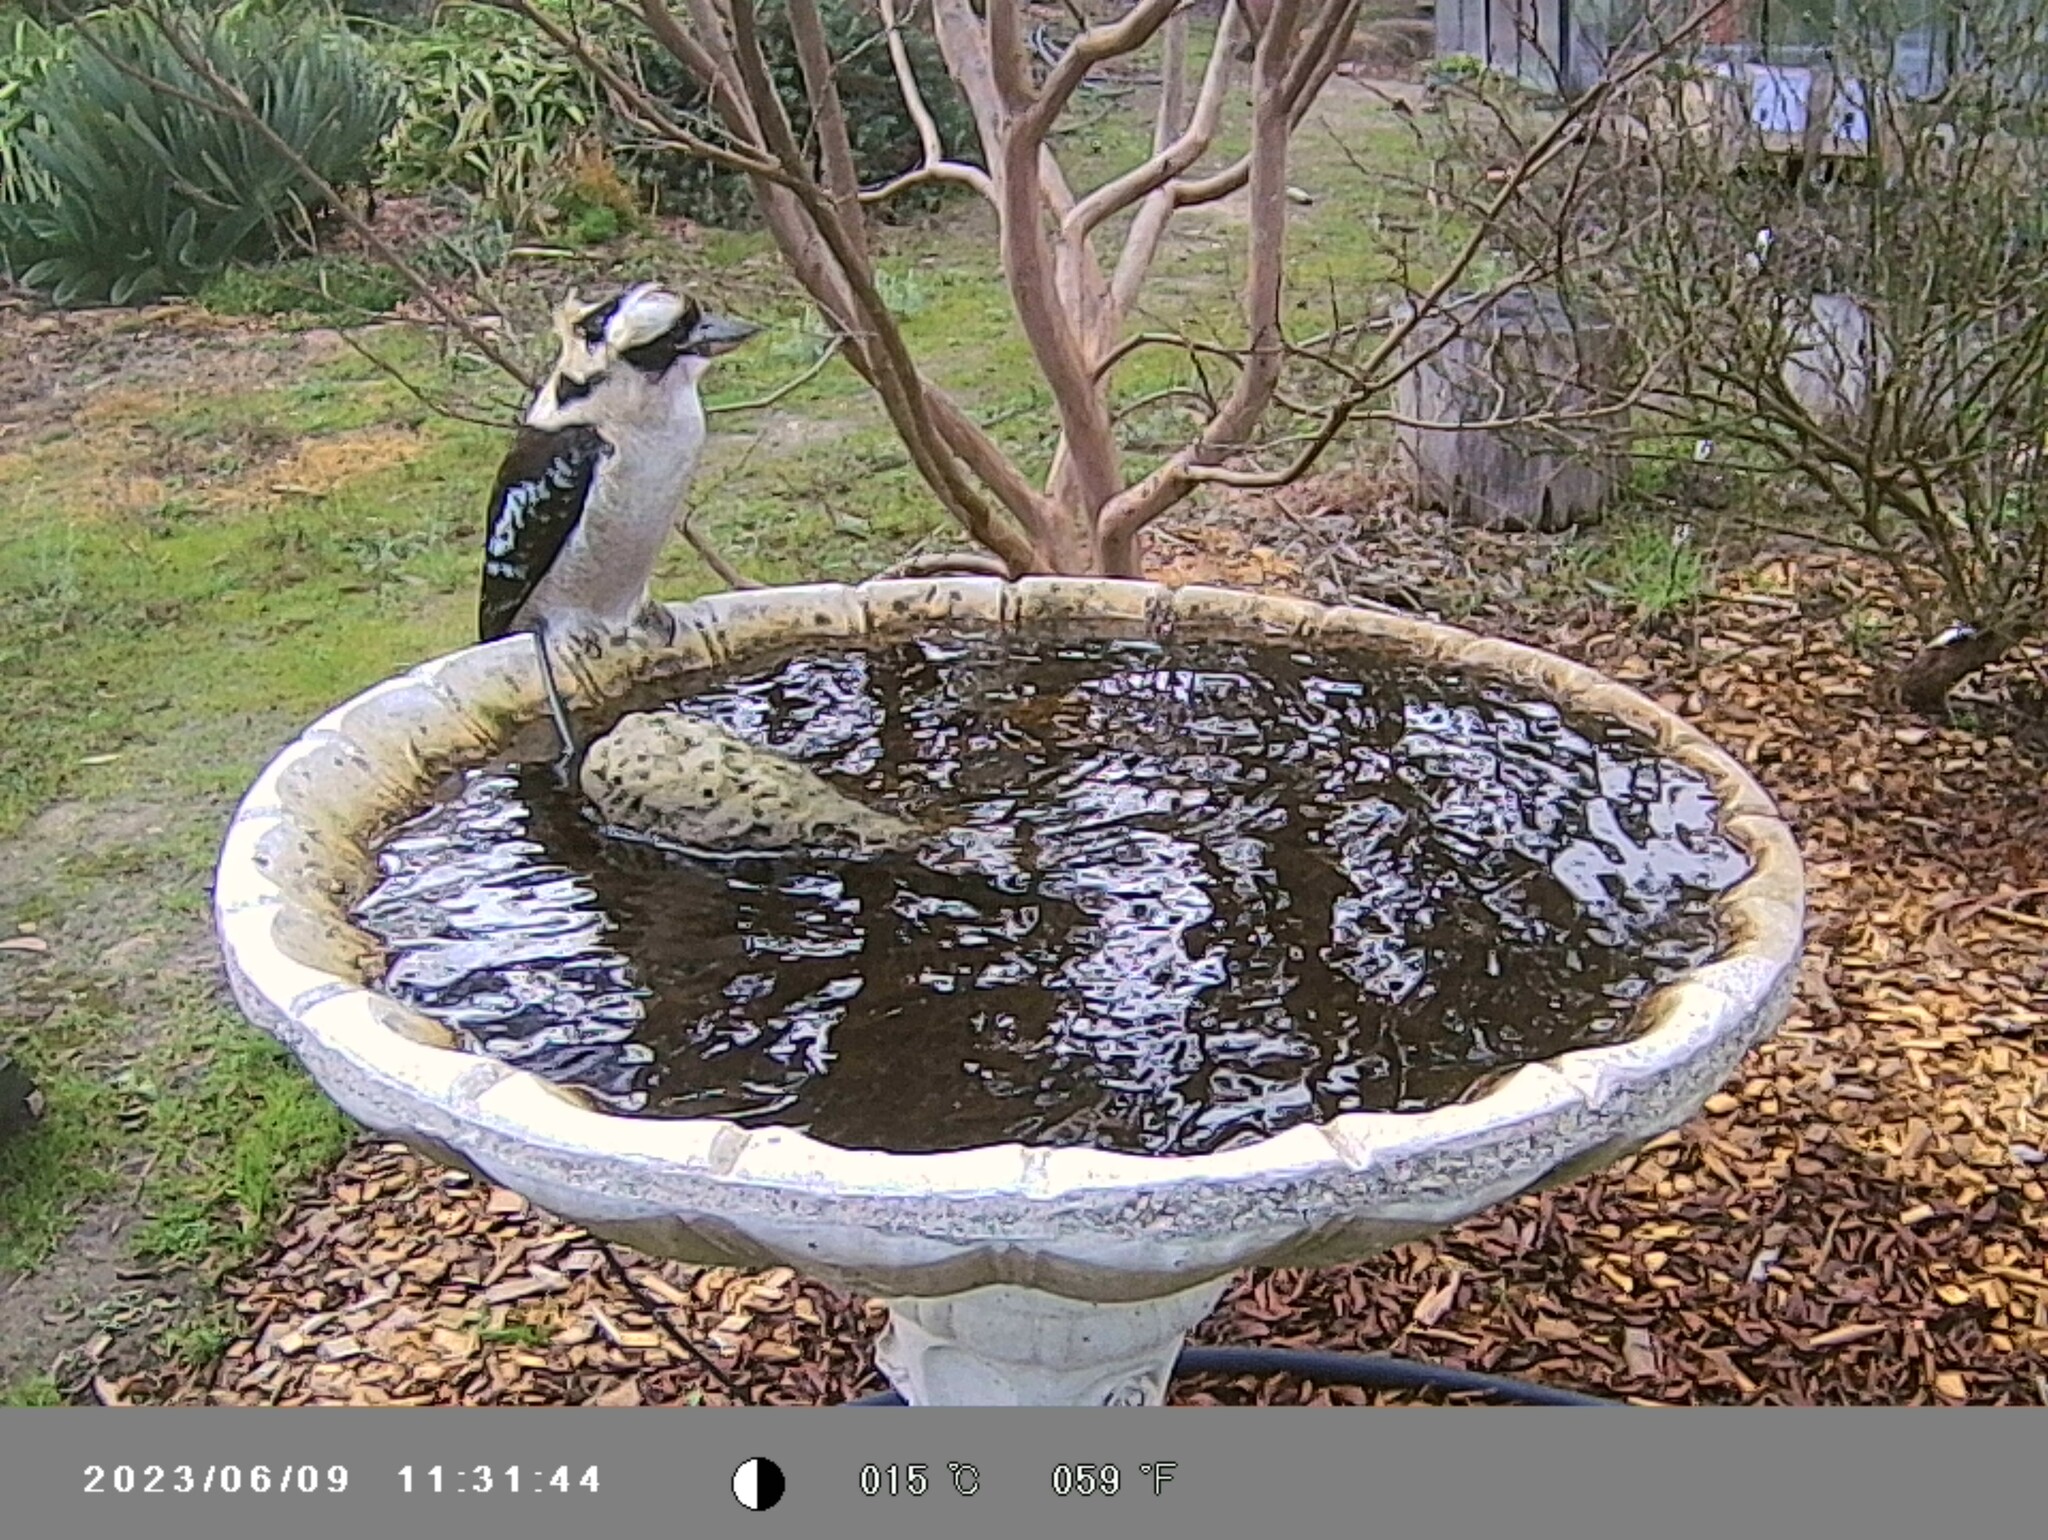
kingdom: Animalia
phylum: Chordata
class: Aves
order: Coraciiformes
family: Alcedinidae
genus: Dacelo
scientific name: Dacelo novaeguineae
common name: Laughing kookaburra
